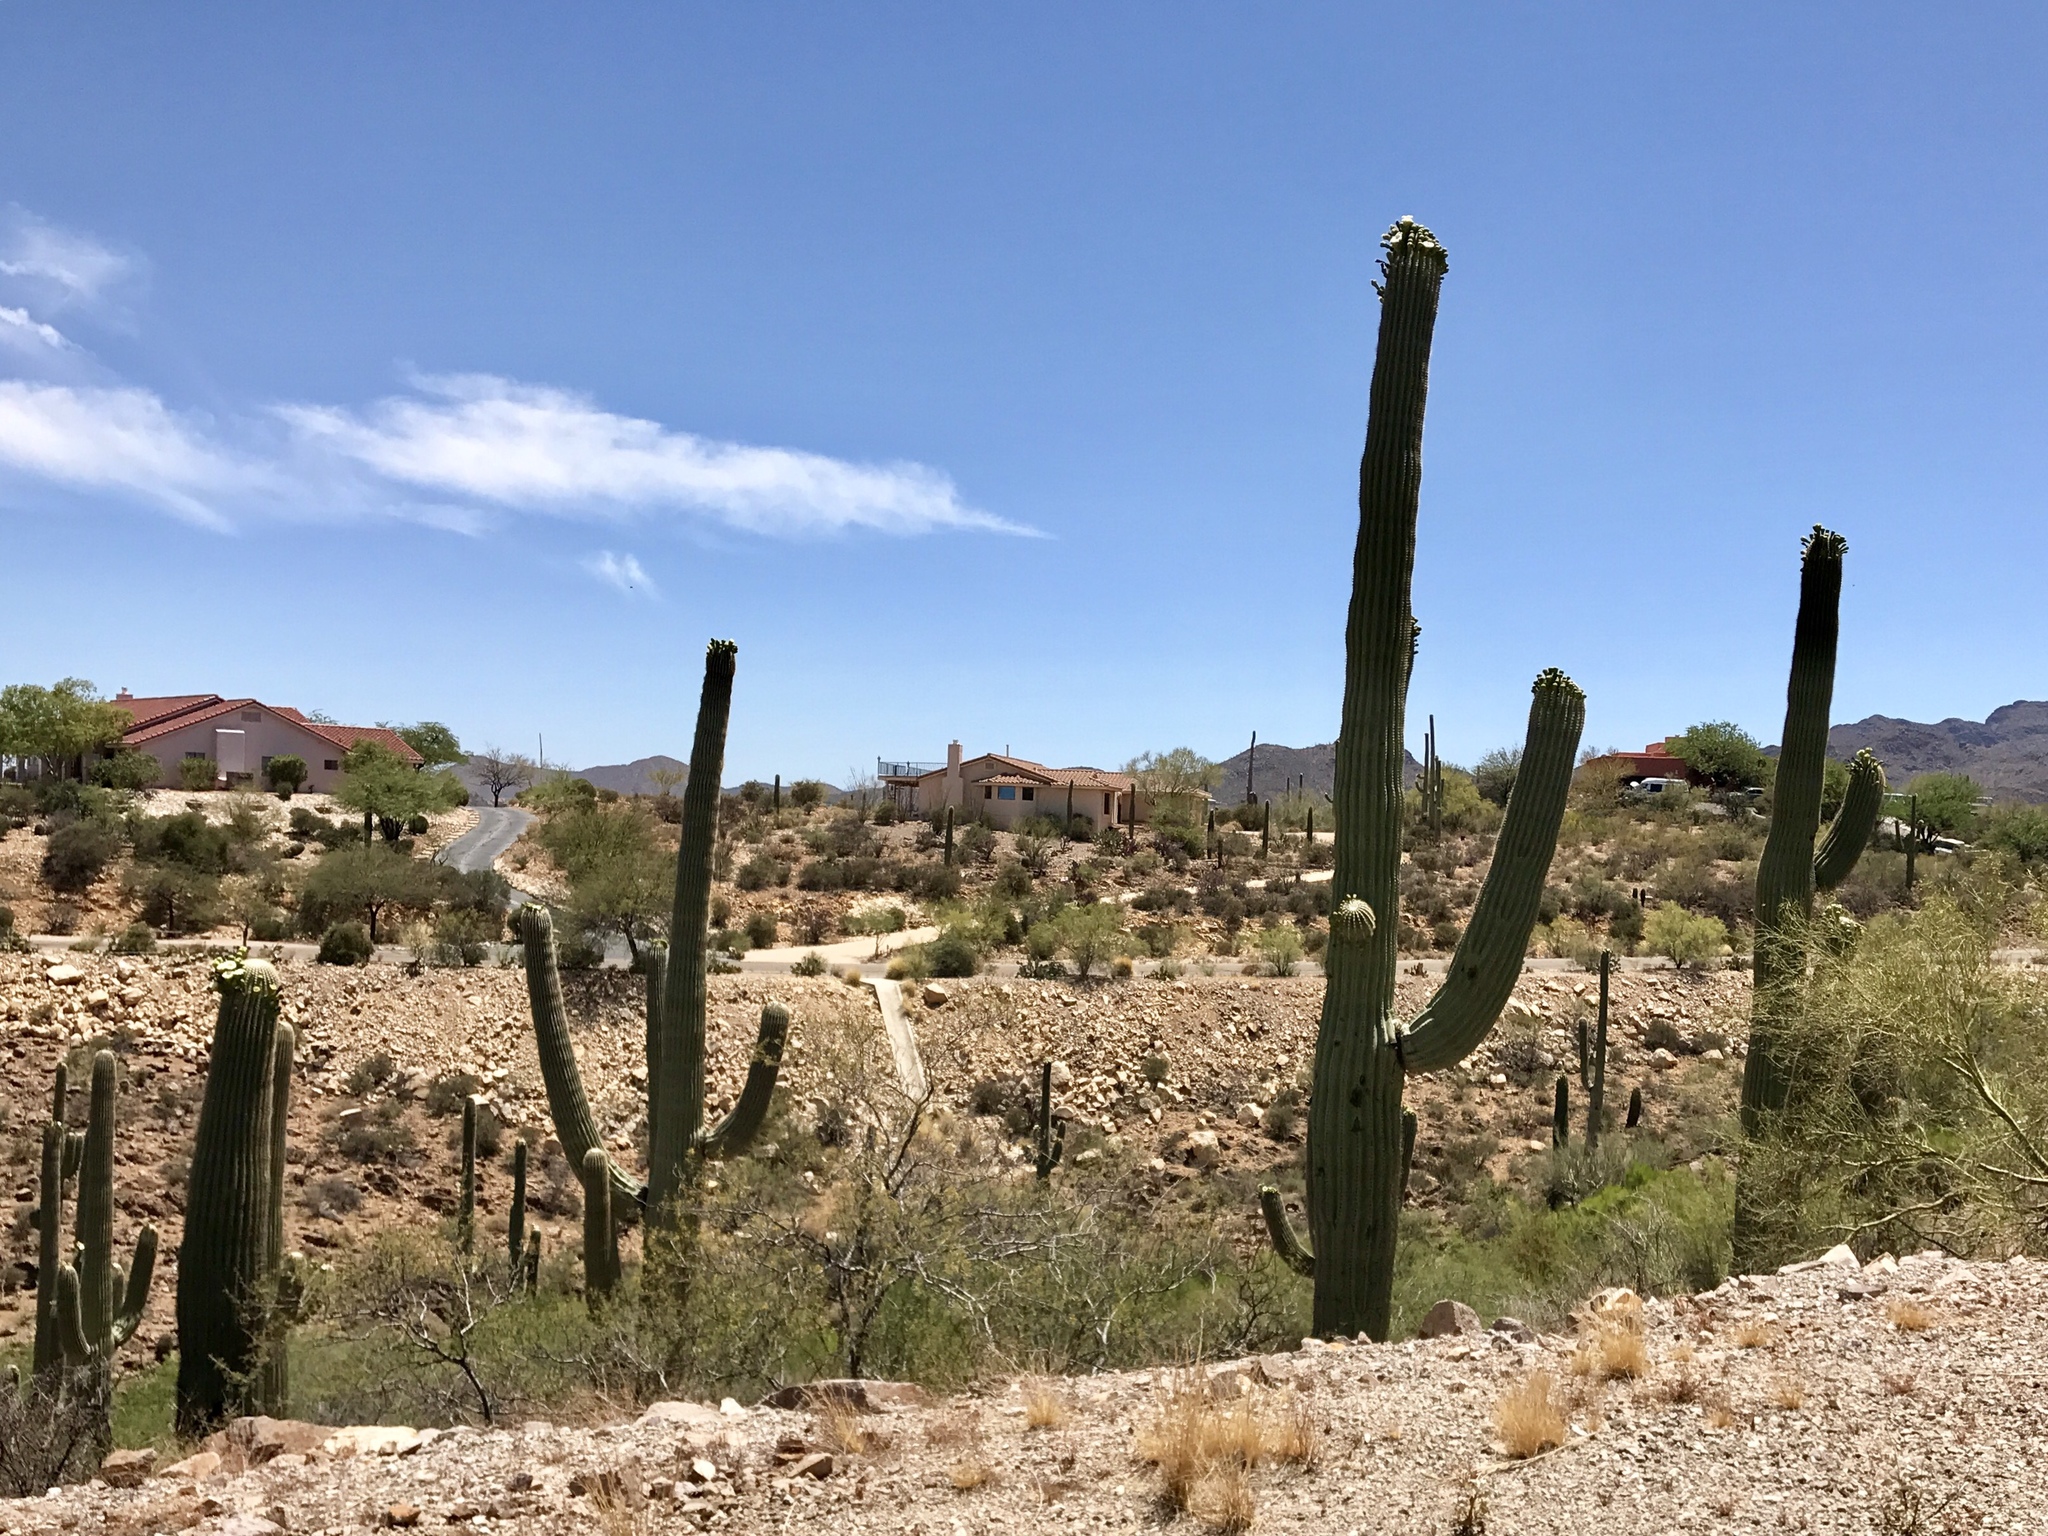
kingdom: Plantae
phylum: Tracheophyta
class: Magnoliopsida
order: Caryophyllales
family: Cactaceae
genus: Carnegiea
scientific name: Carnegiea gigantea
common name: Saguaro
